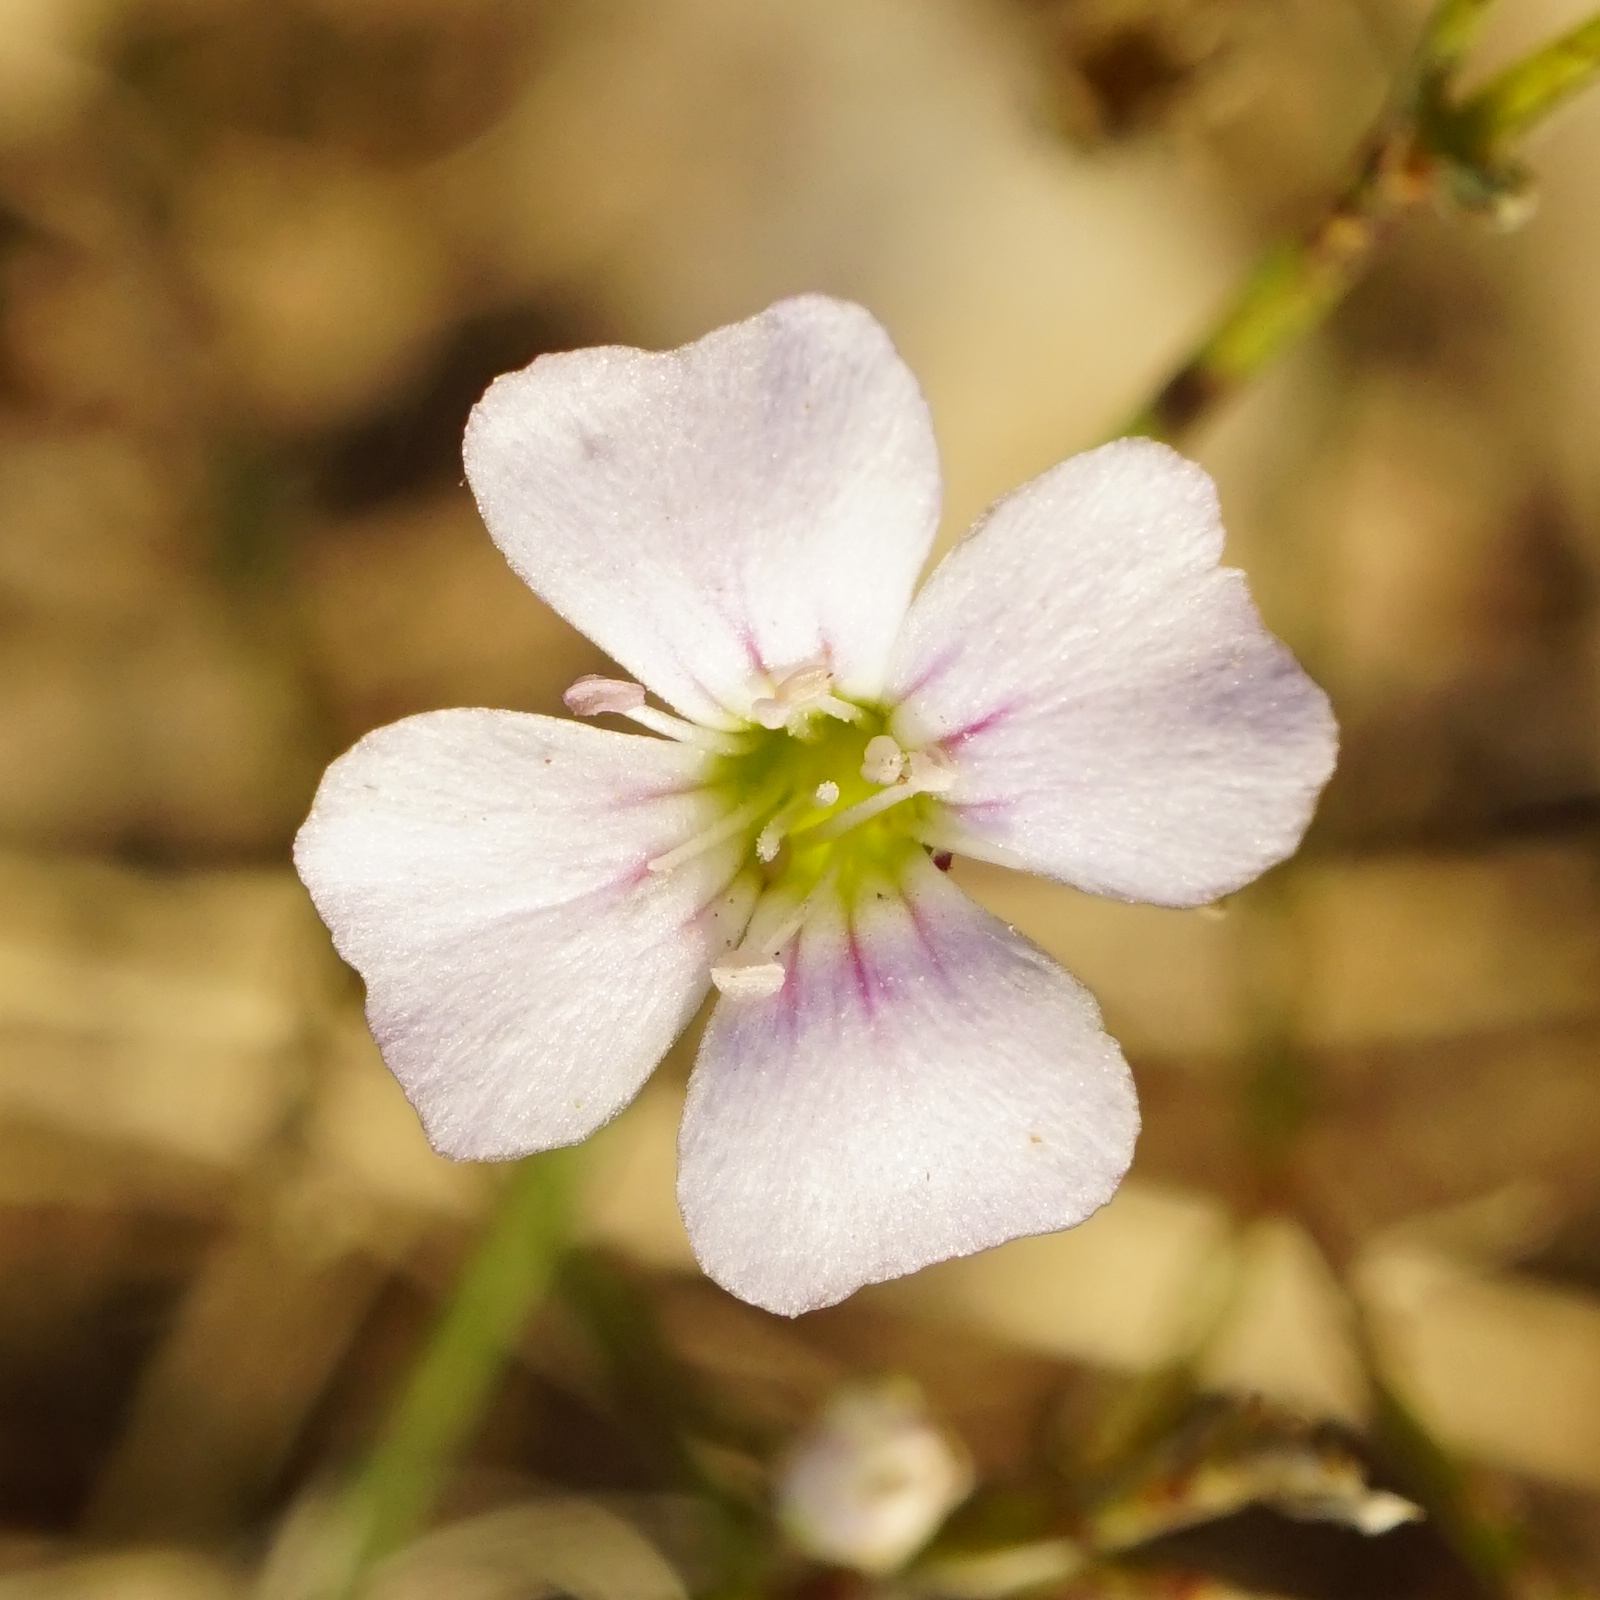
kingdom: Plantae
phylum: Tracheophyta
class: Magnoliopsida
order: Caryophyllales
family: Caryophyllaceae
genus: Petrorhagia
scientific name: Petrorhagia saxifraga
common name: Tunicflower
